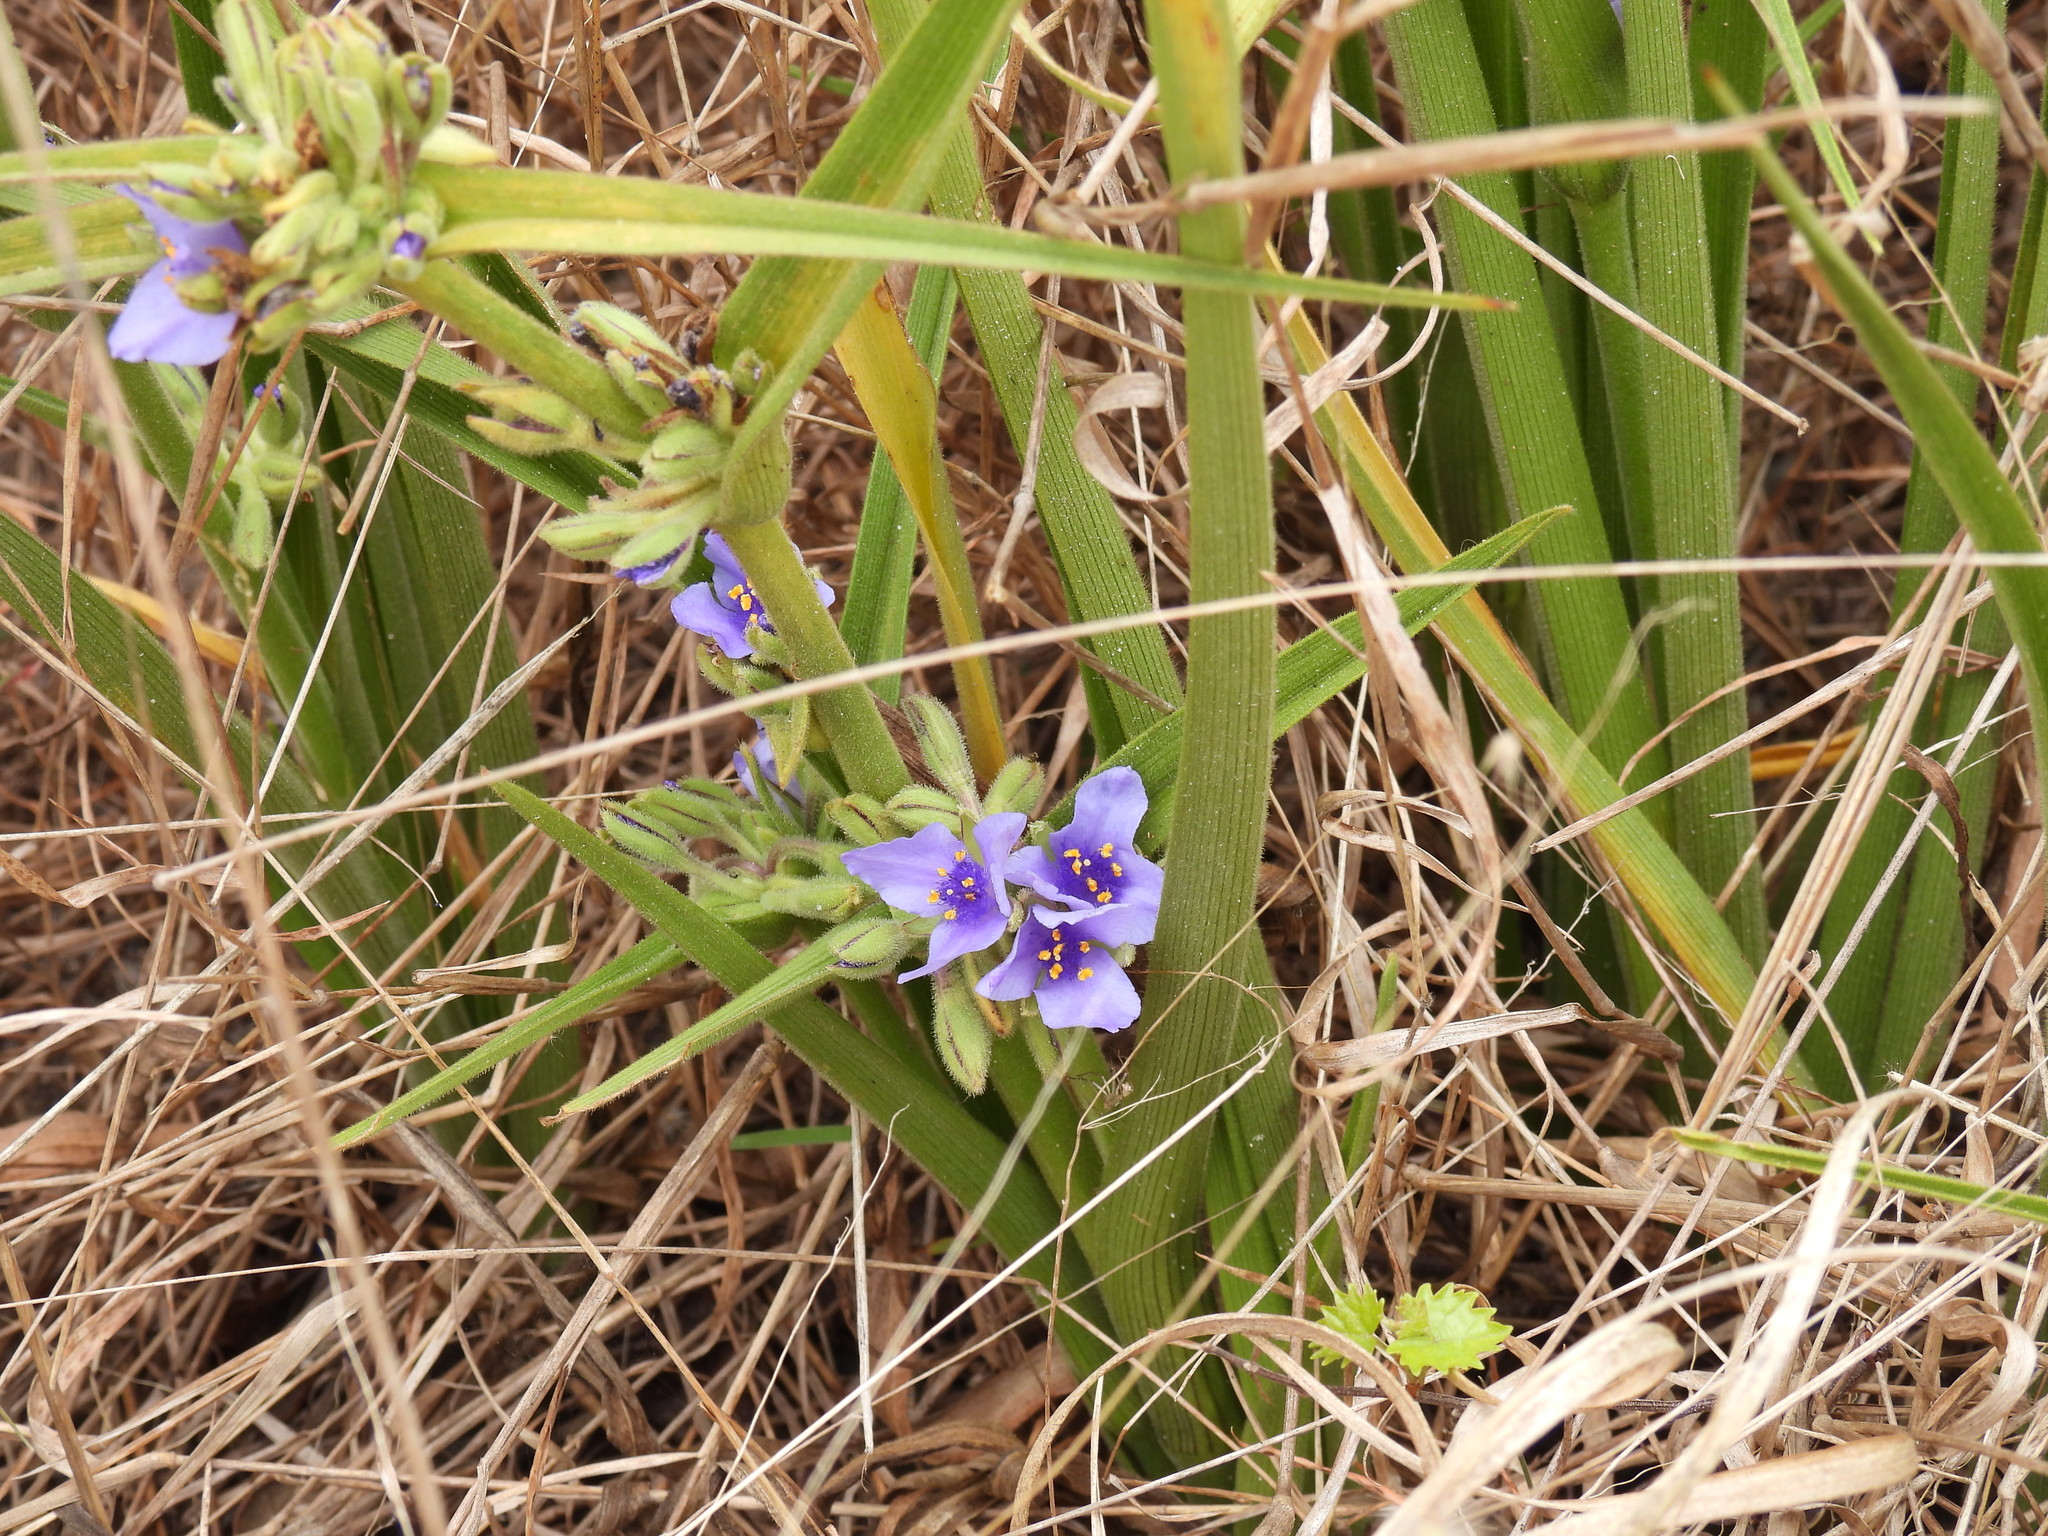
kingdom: Plantae
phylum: Tracheophyta
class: Liliopsida
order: Commelinales
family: Commelinaceae
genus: Tradescantia
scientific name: Tradescantia roseolens
